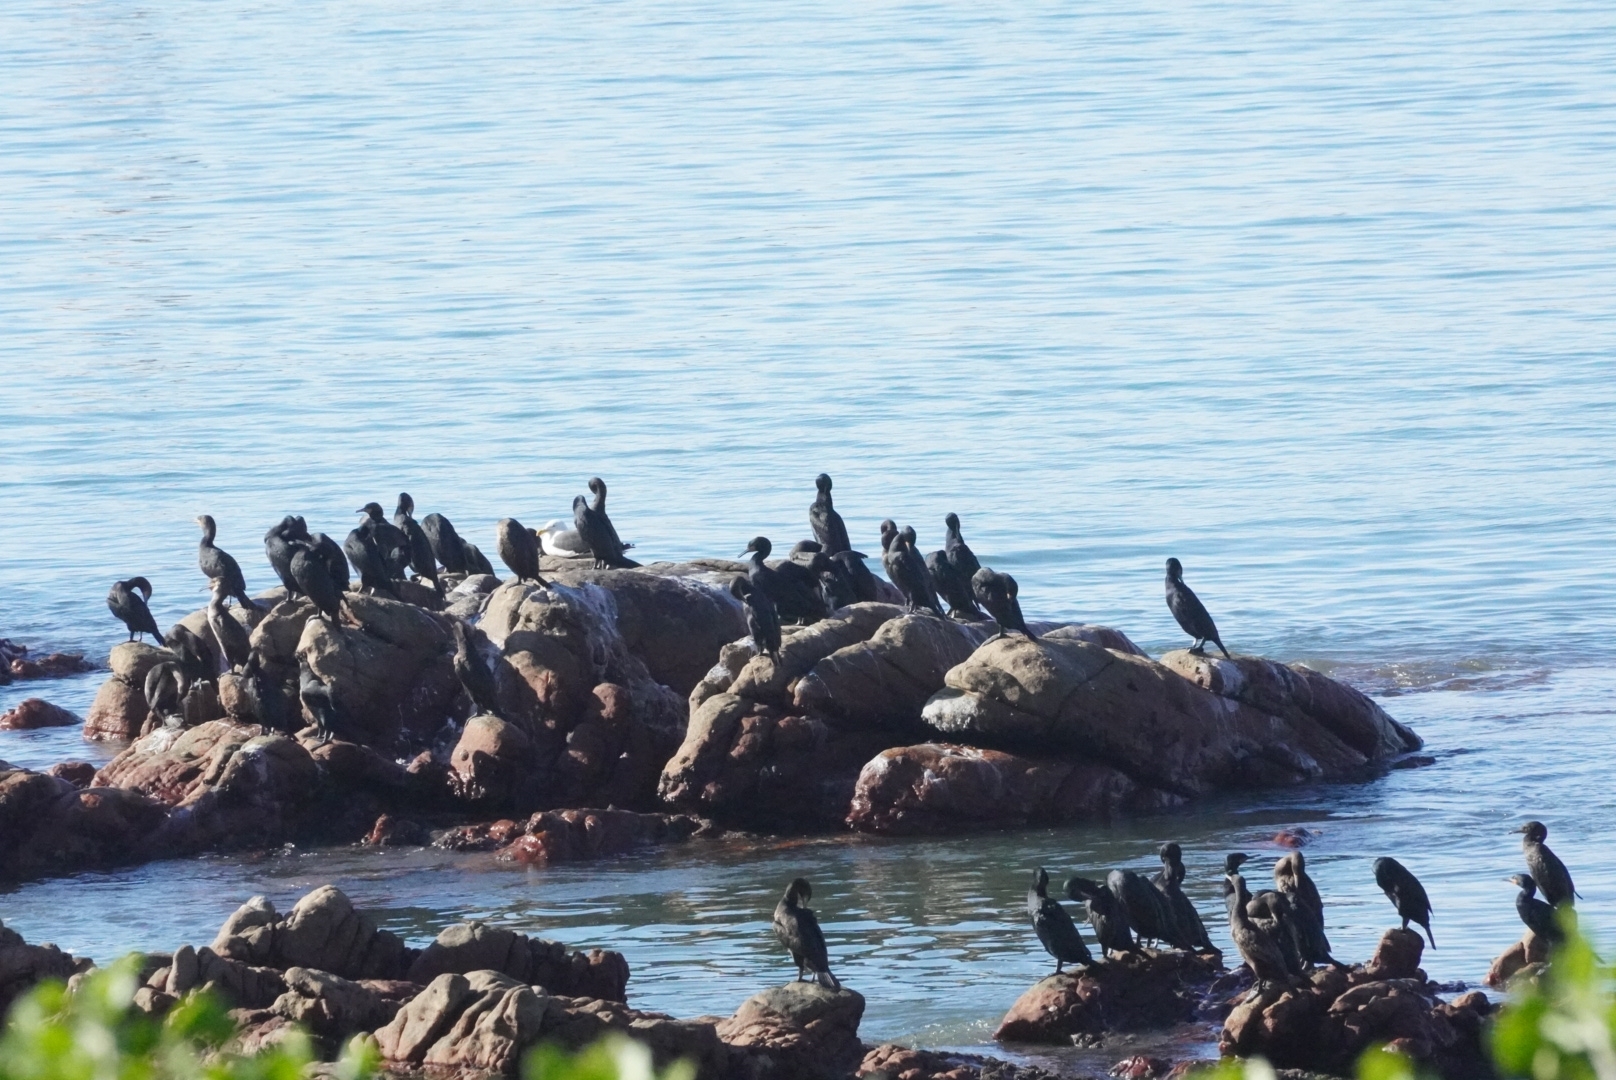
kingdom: Animalia
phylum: Chordata
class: Aves
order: Suliformes
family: Phalacrocoracidae
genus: Phalacrocorax
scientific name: Phalacrocorax capensis
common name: Cape cormorant
